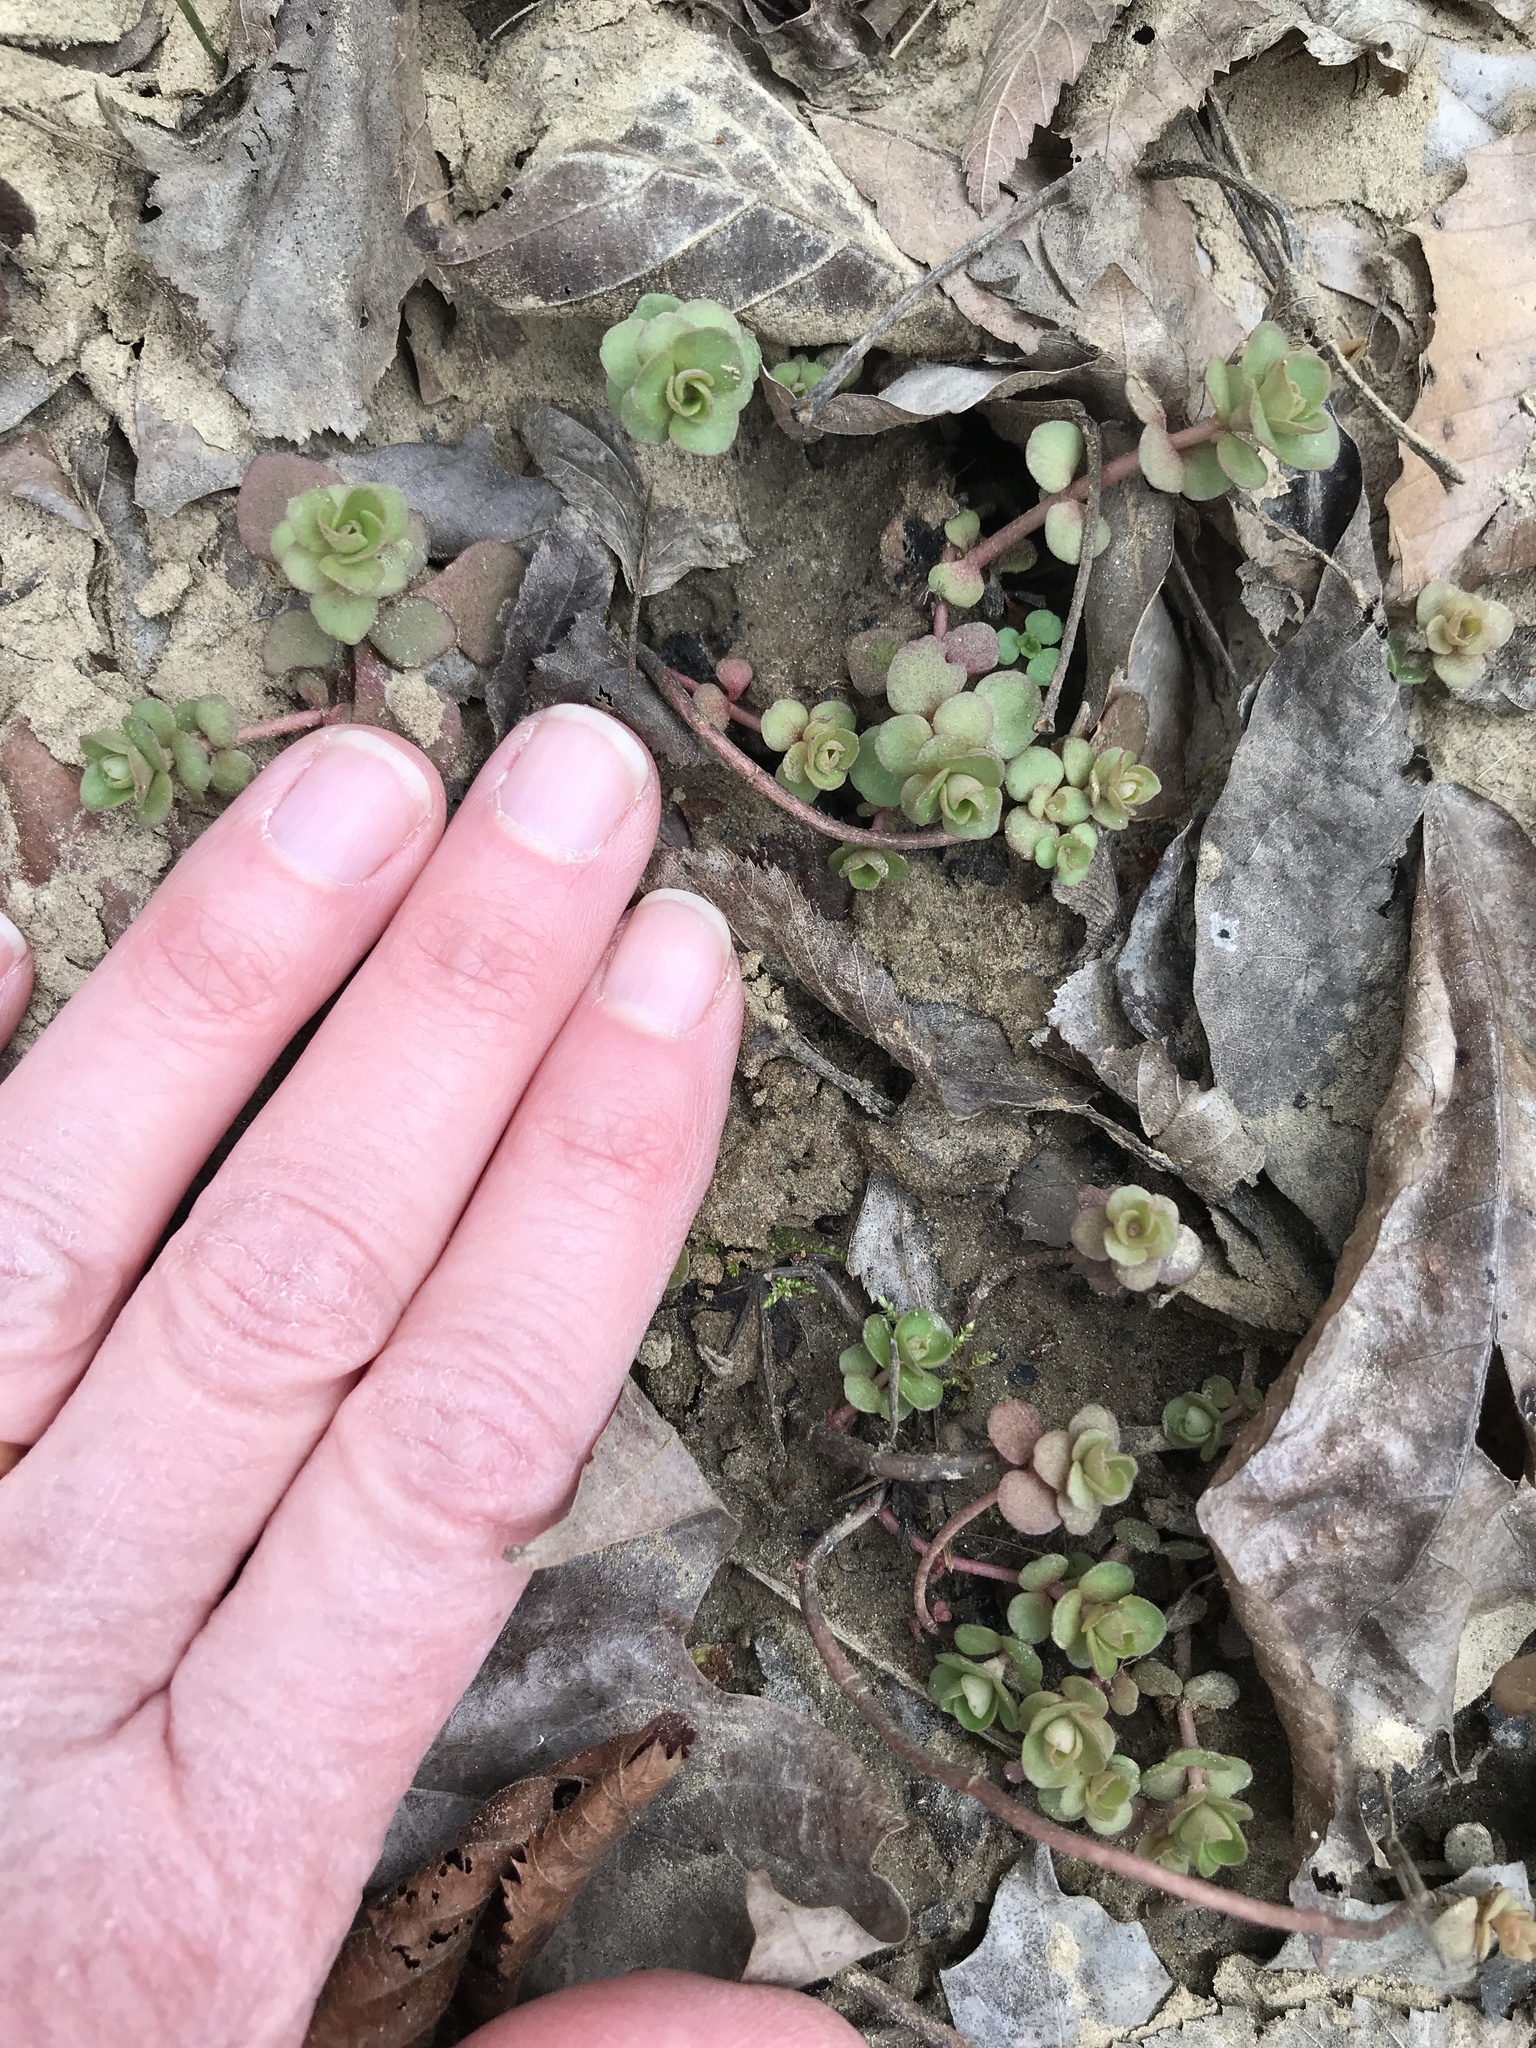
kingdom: Plantae
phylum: Tracheophyta
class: Magnoliopsida
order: Saxifragales
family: Crassulaceae
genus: Sedum
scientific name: Sedum ternatum
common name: Wild stonecrop
